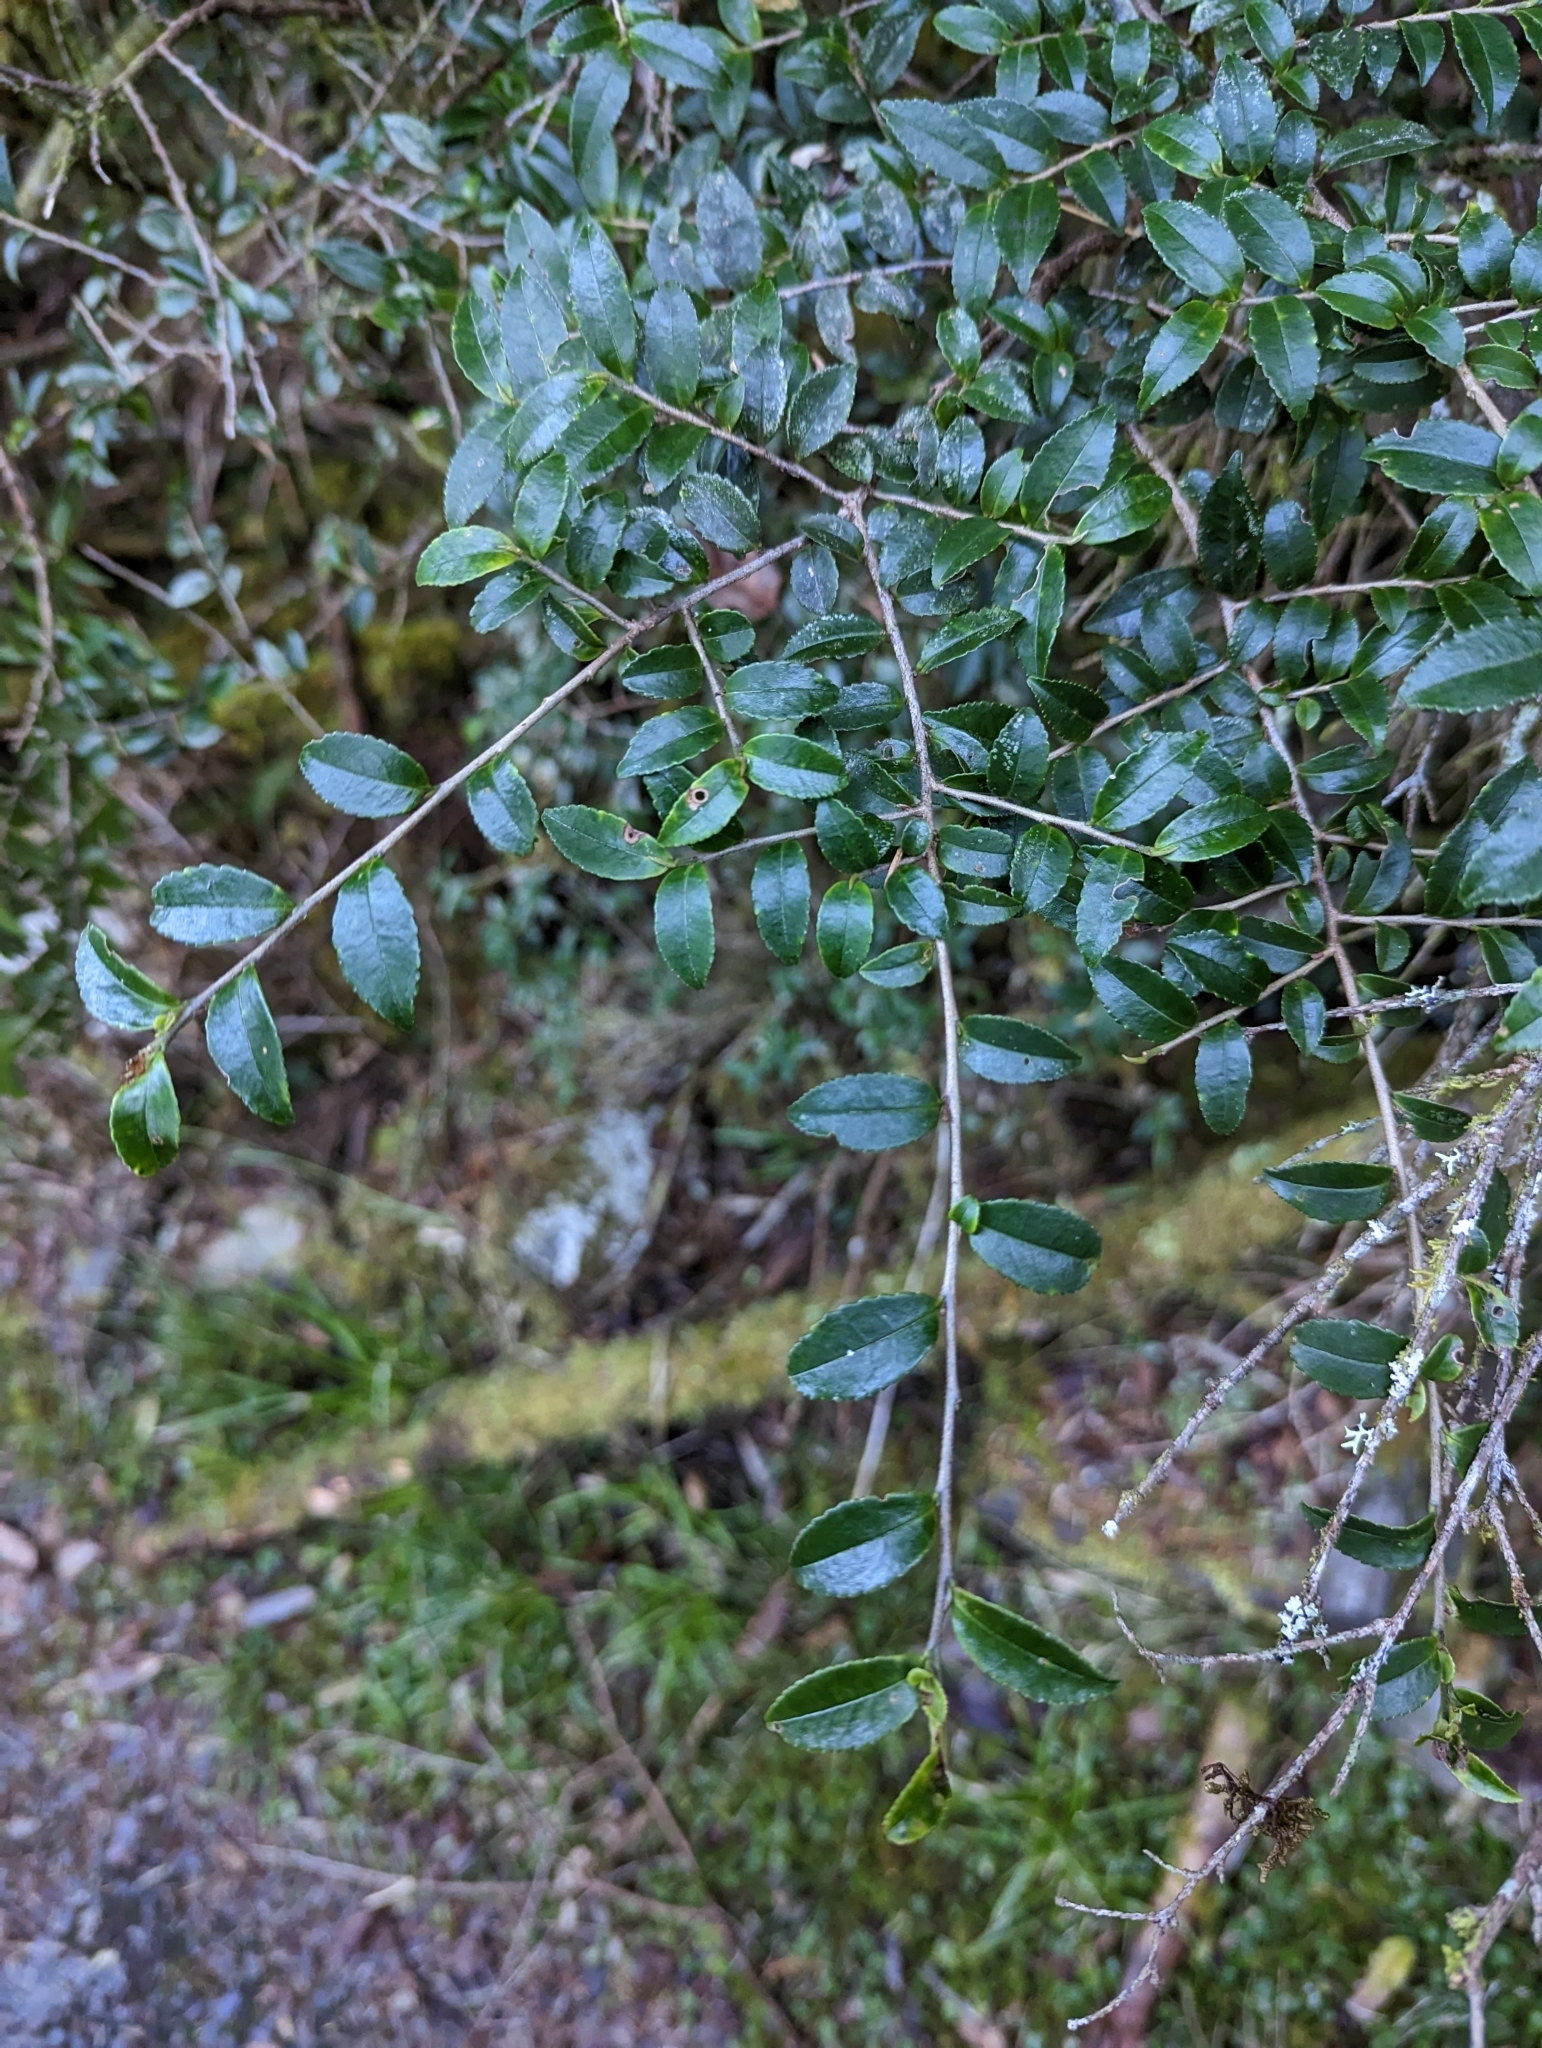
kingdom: Plantae
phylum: Tracheophyta
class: Magnoliopsida
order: Ericales
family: Pentaphylacaceae
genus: Eurya
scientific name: Eurya crenatifolia
